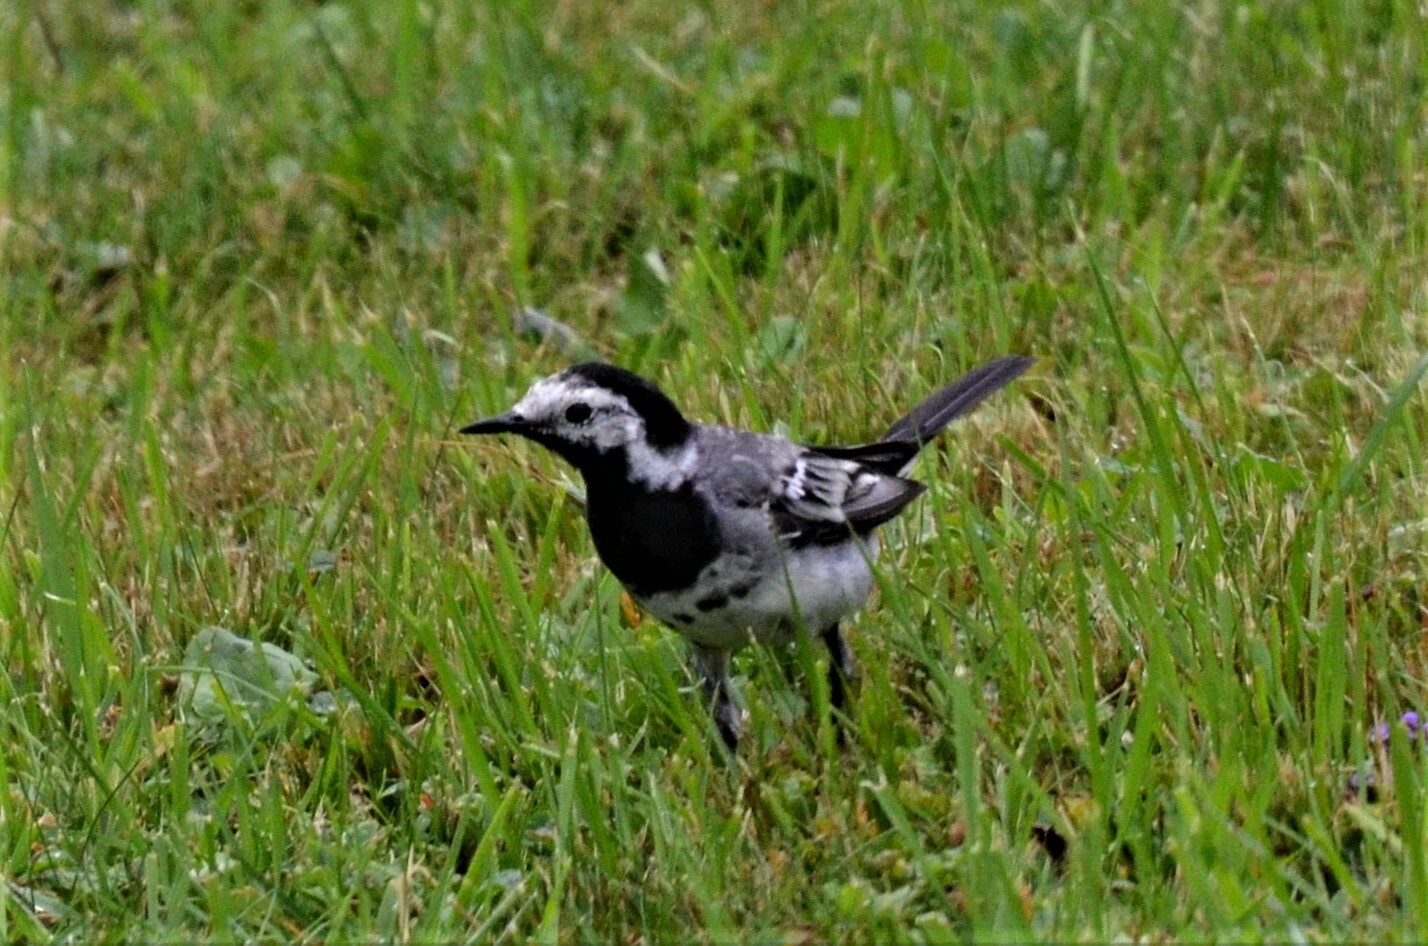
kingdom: Animalia
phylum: Chordata
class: Aves
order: Passeriformes
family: Motacillidae
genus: Motacilla
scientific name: Motacilla alba
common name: White wagtail
